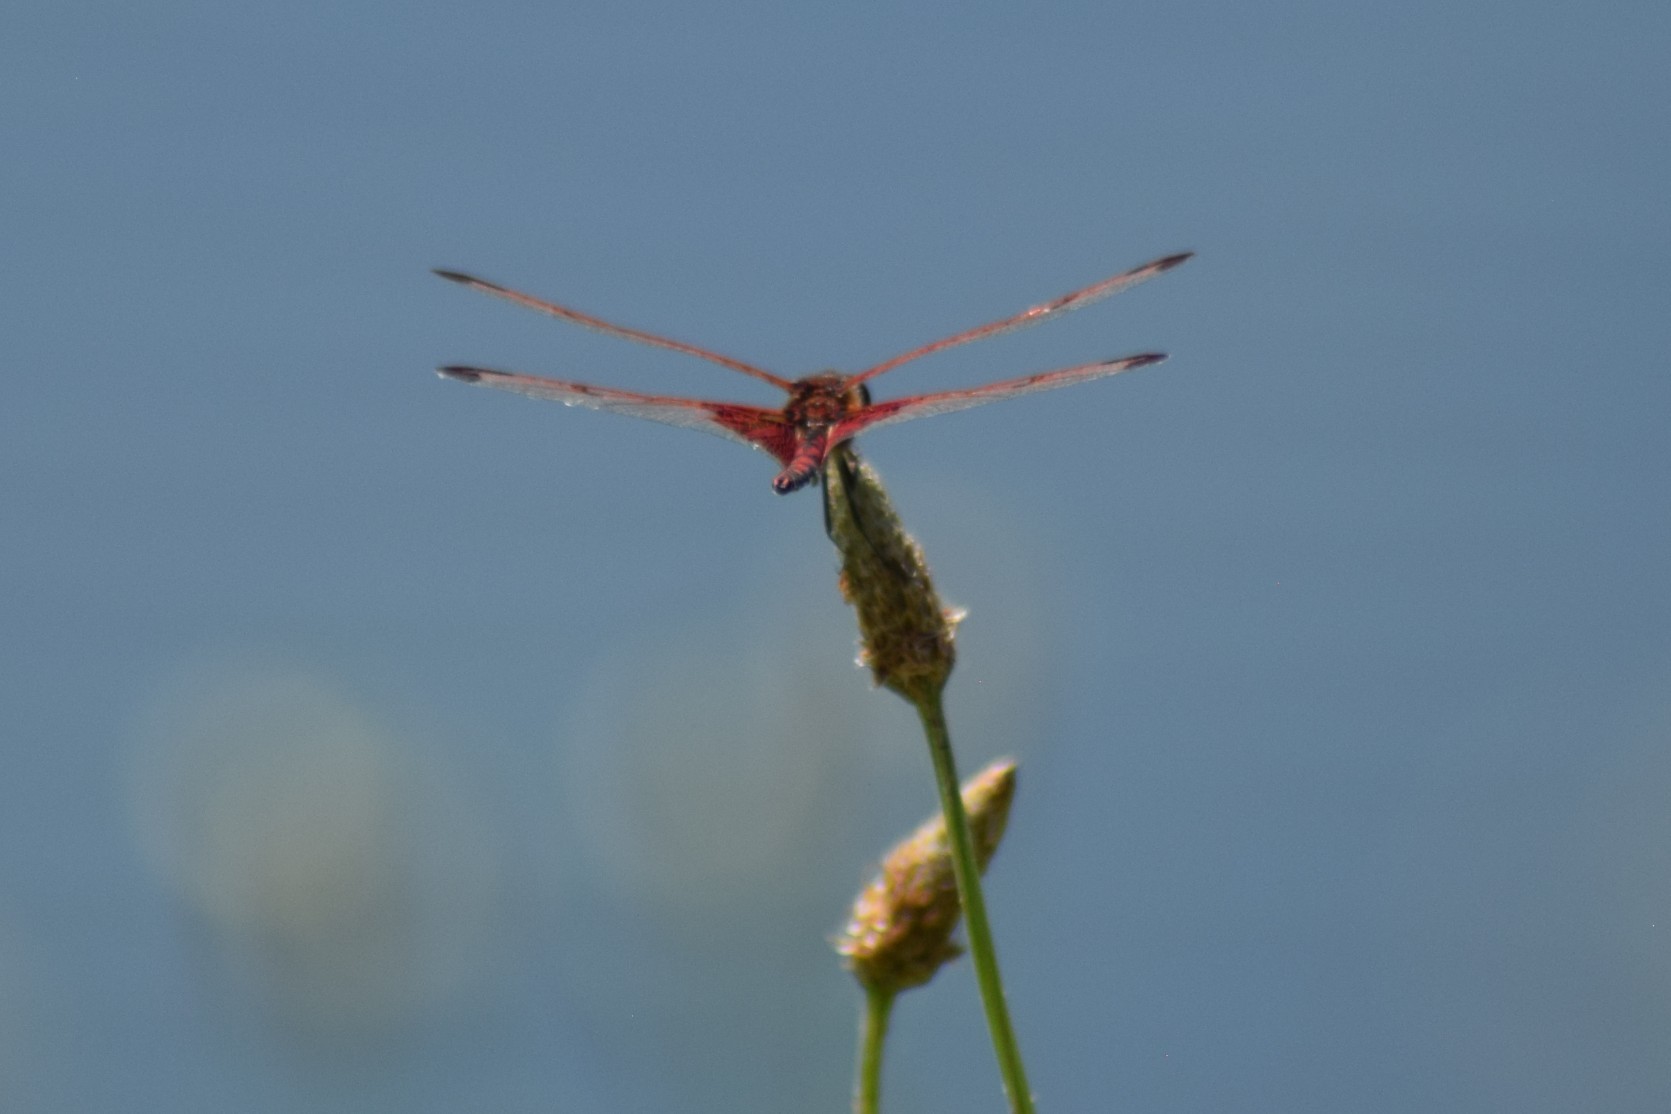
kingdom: Animalia
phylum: Arthropoda
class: Insecta
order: Odonata
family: Libellulidae
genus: Celithemis
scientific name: Celithemis elisa
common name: Calico pennant
